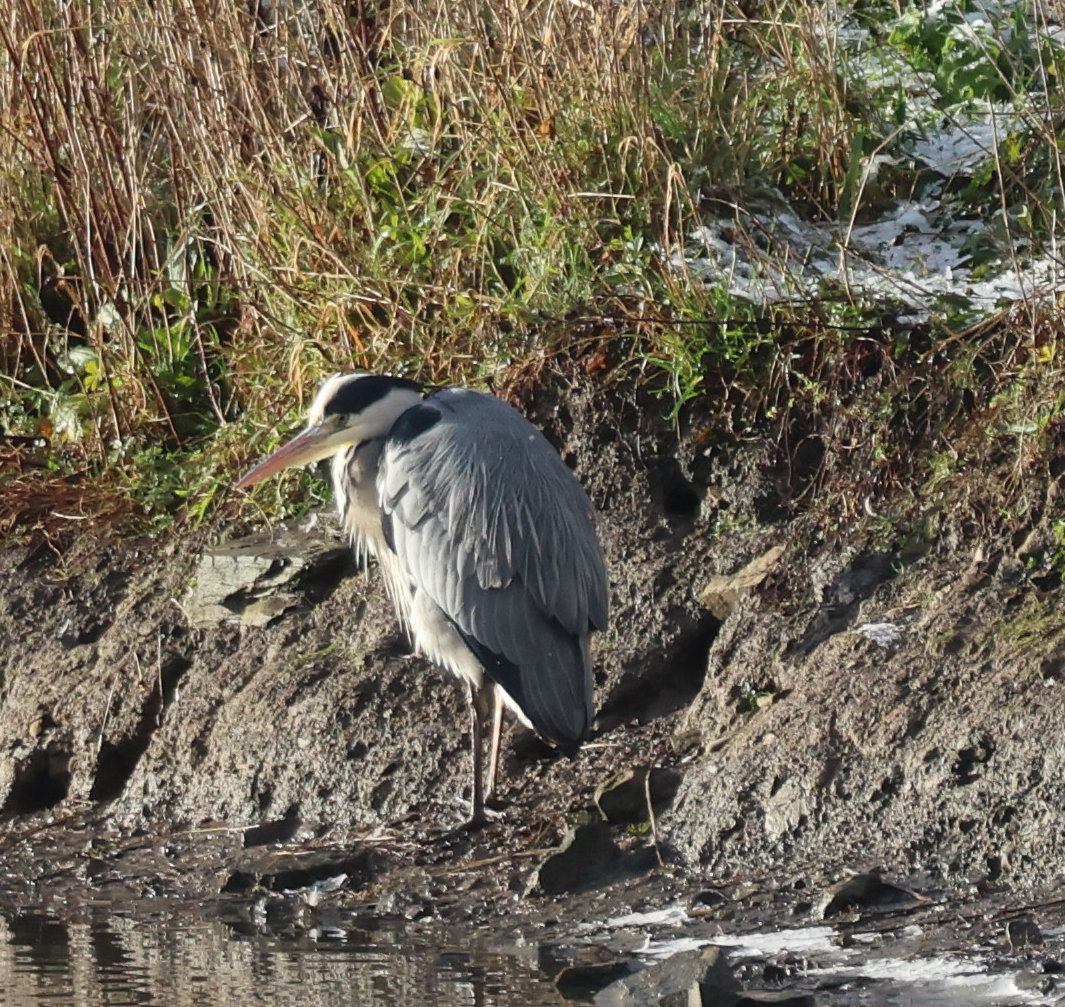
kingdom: Animalia
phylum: Chordata
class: Aves
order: Pelecaniformes
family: Ardeidae
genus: Ardea
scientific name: Ardea cinerea
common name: Grey heron
